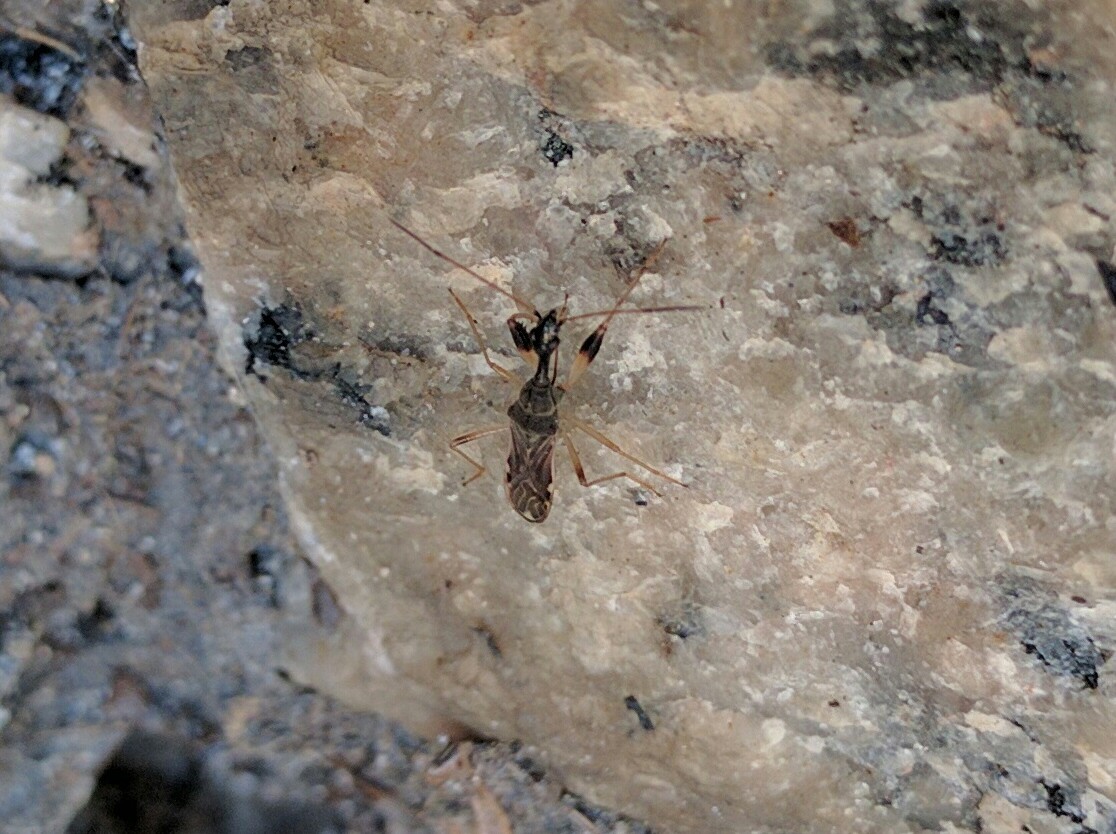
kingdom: Animalia
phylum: Arthropoda
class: Insecta
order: Hemiptera
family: Rhyparochromidae
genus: Myodocha
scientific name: Myodocha serripes
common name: Long-necked seed bug
